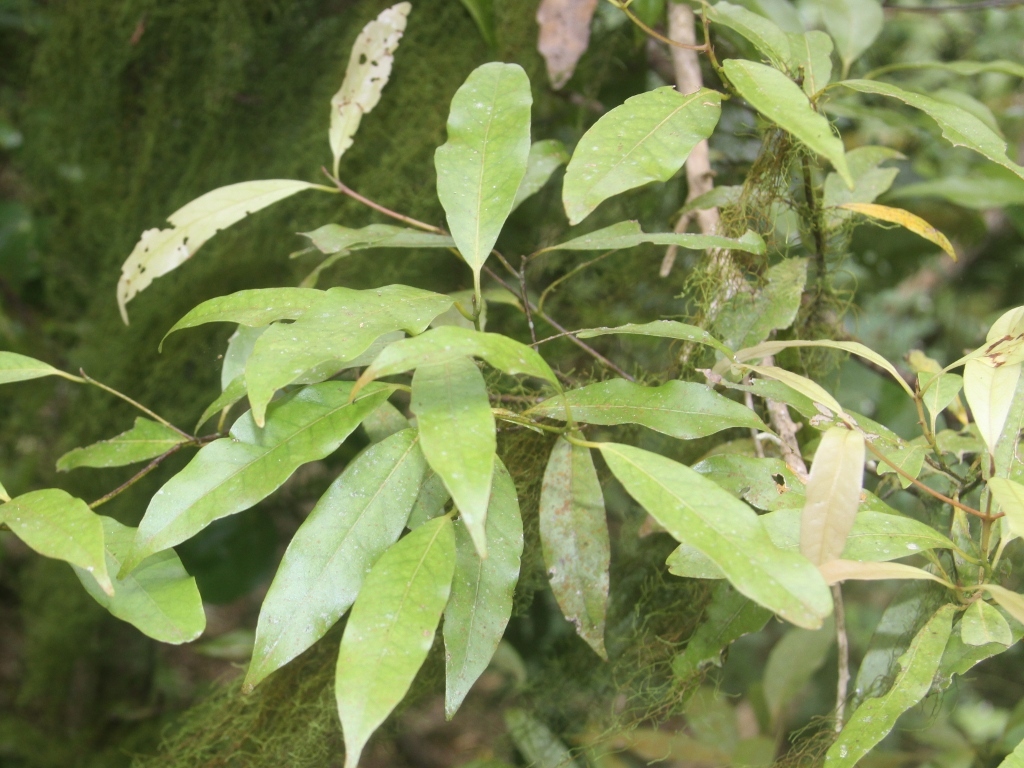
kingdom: Plantae
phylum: Tracheophyta
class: Magnoliopsida
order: Laurales
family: Lauraceae
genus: Beilschmiedia
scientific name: Beilschmiedia tawa
